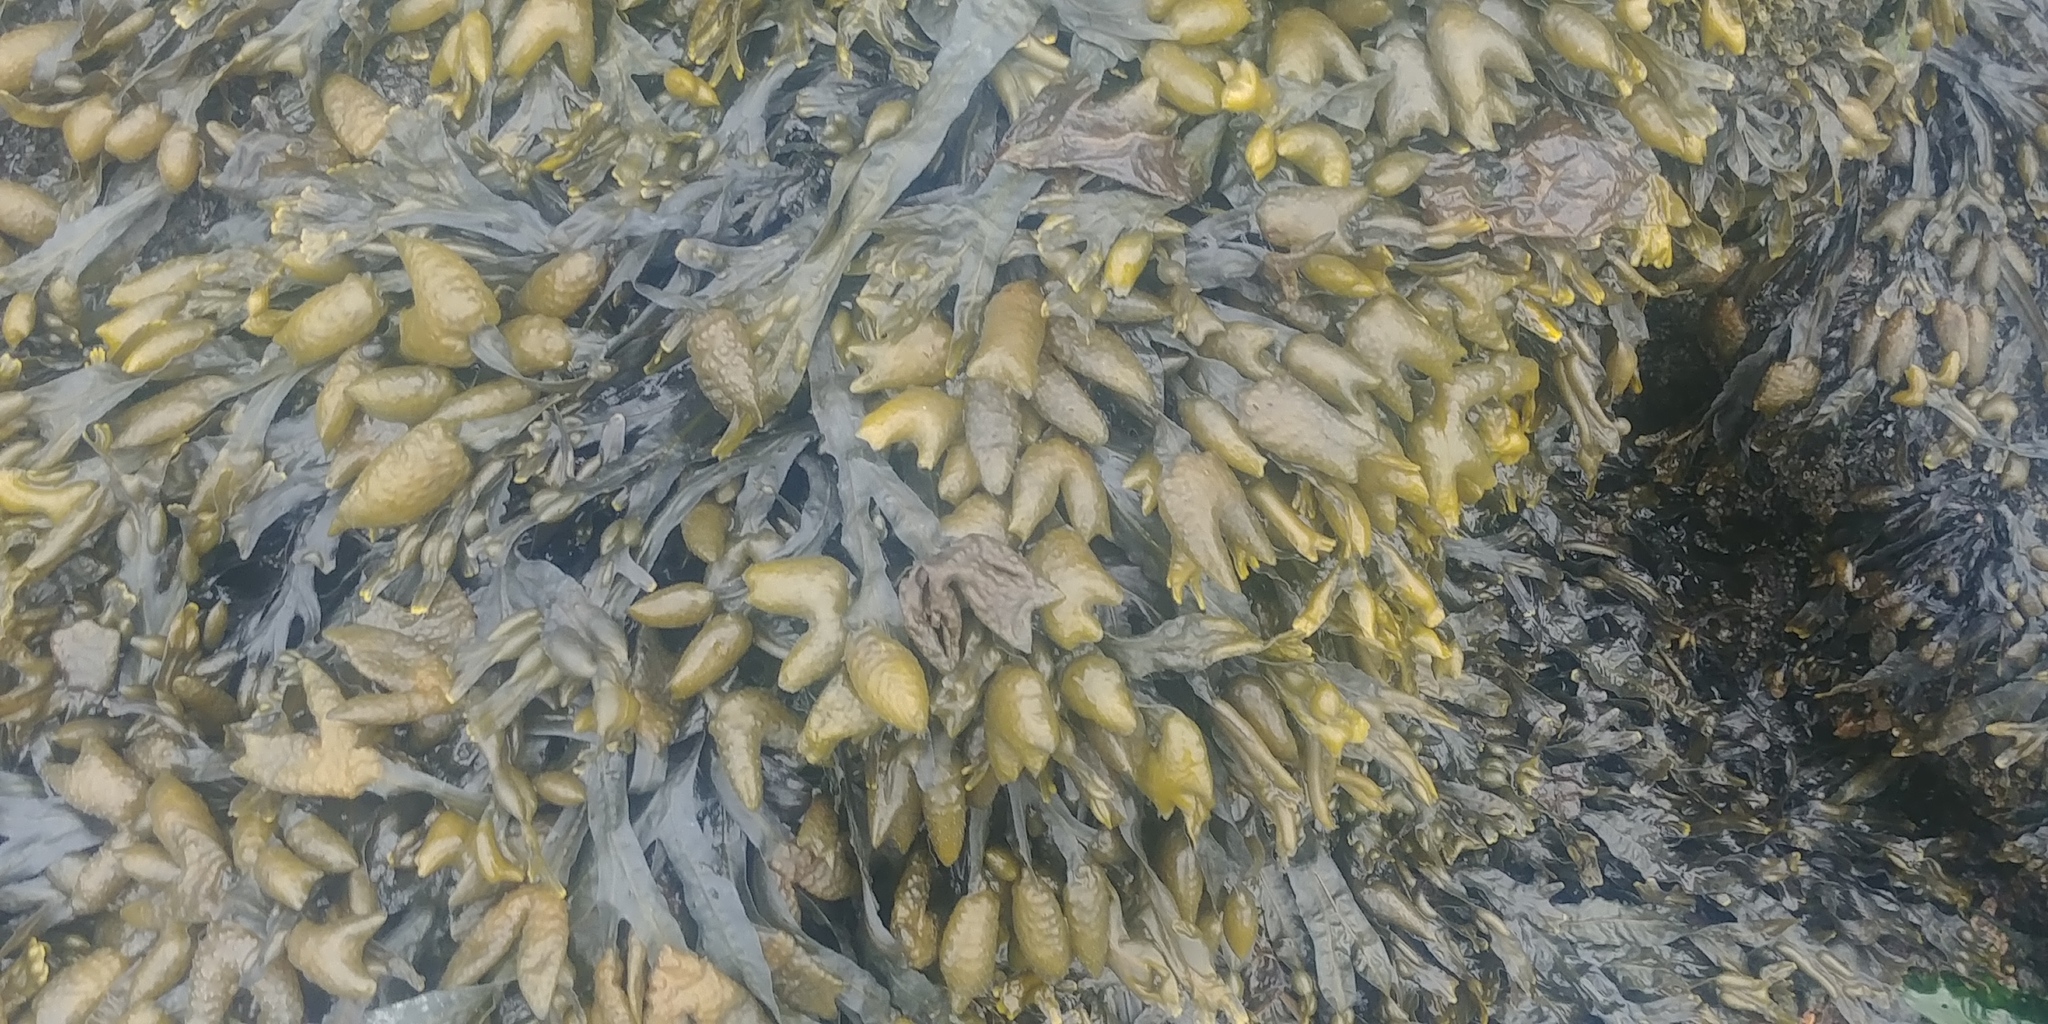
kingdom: Chromista
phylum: Ochrophyta
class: Phaeophyceae
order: Fucales
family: Fucaceae
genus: Fucus
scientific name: Fucus vesiculosus
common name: Bladder wrack
